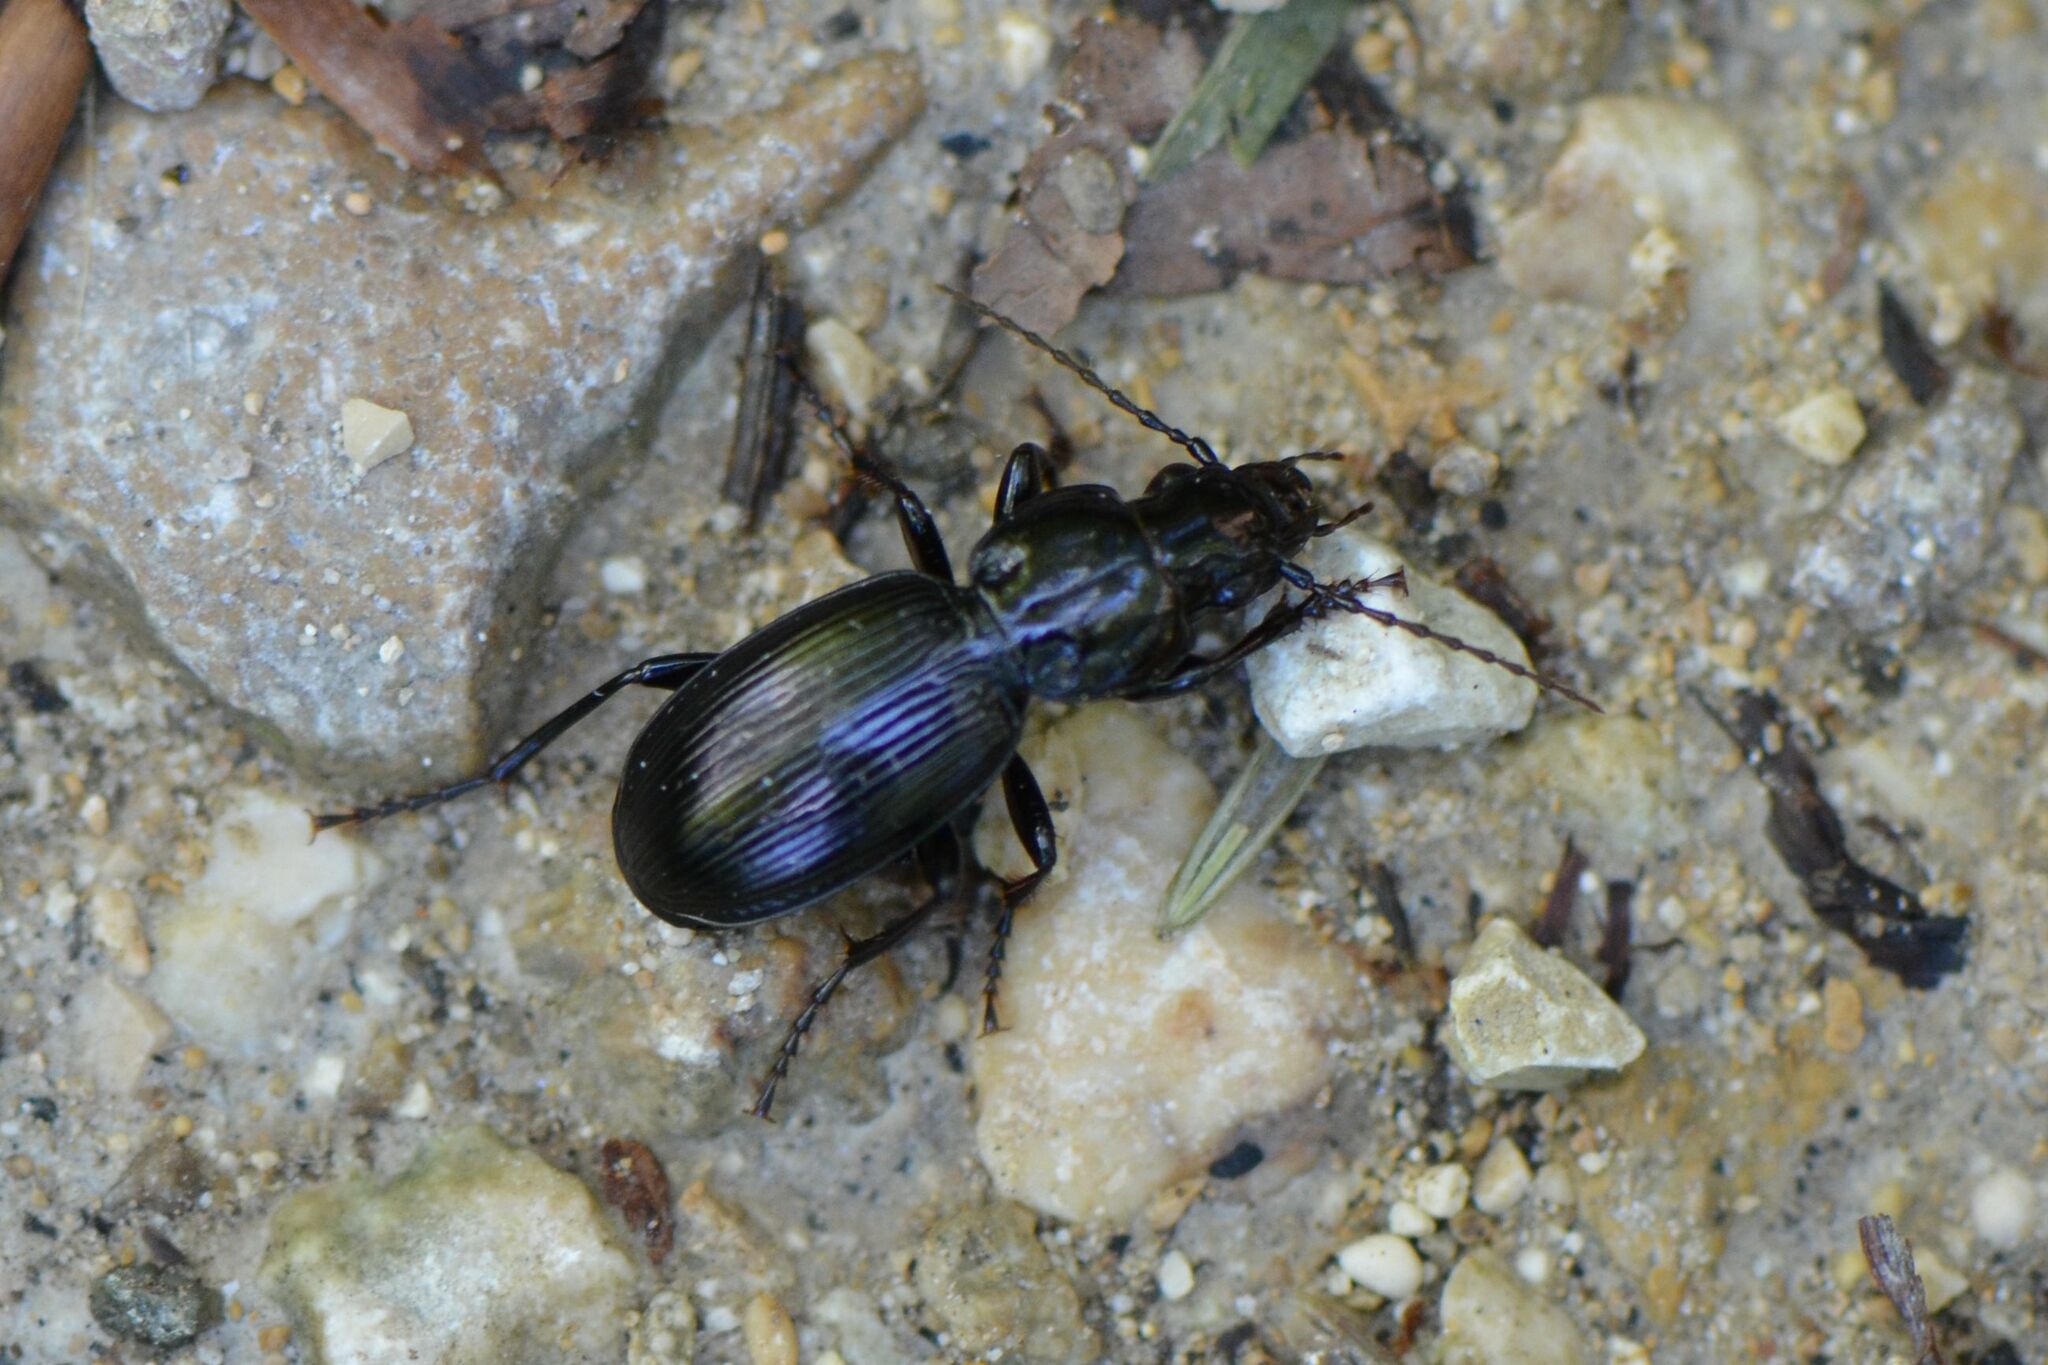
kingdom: Animalia
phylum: Arthropoda
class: Insecta
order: Coleoptera
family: Carabidae
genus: Pterostichus
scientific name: Pterostichus madidus
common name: Black clock
